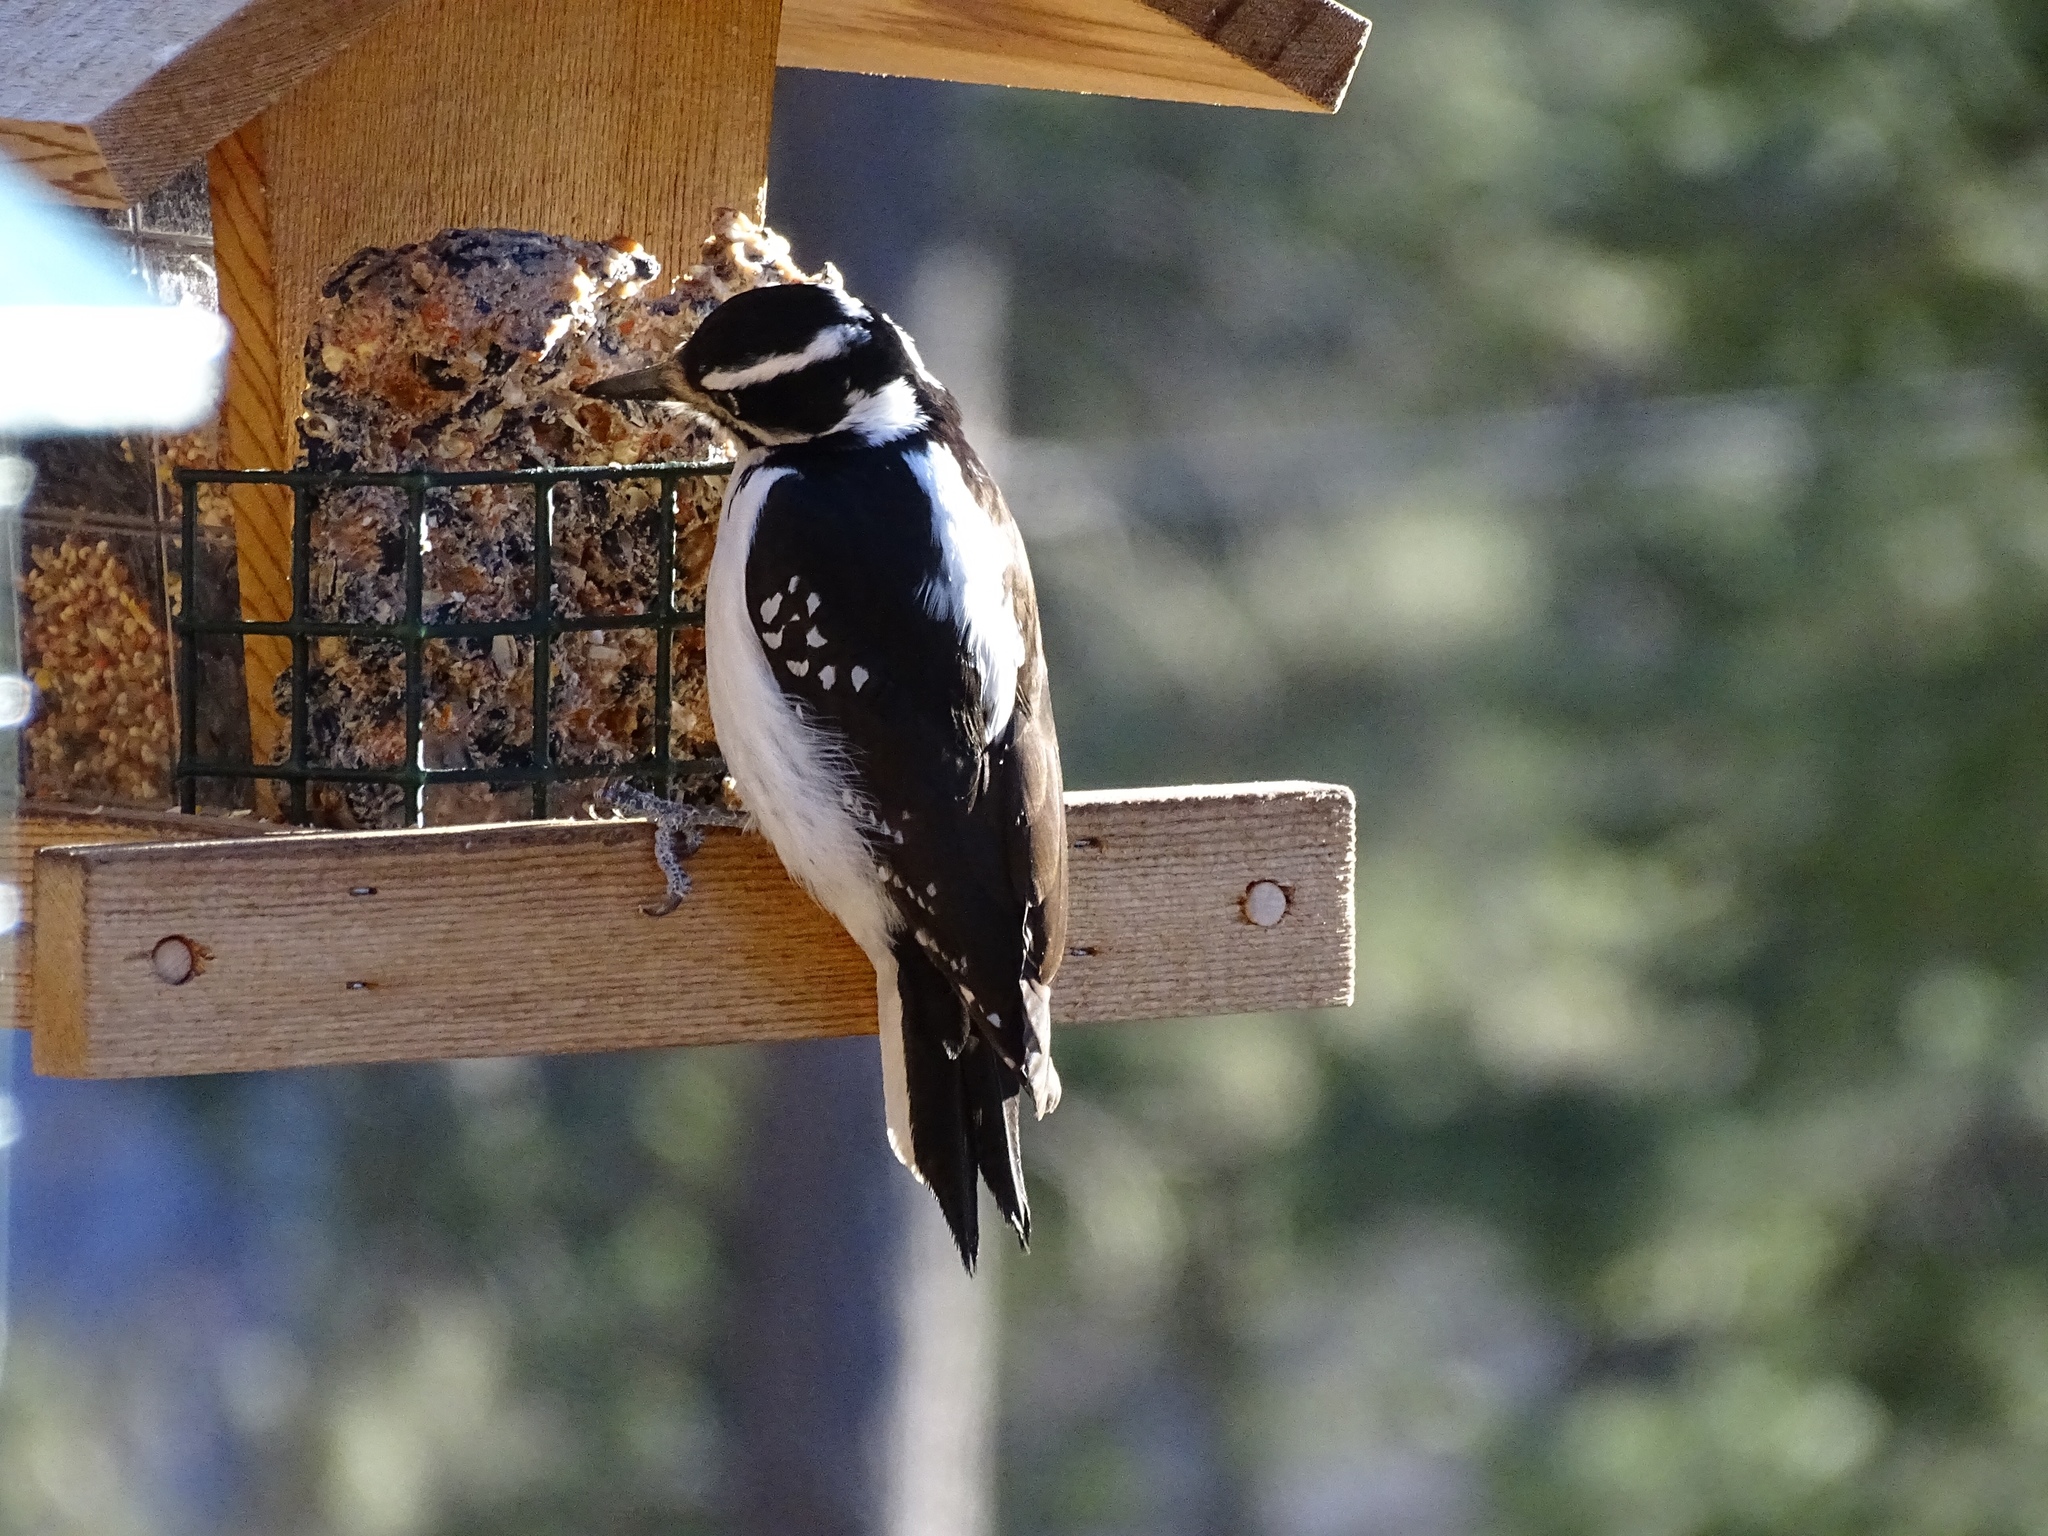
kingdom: Animalia
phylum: Chordata
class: Aves
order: Piciformes
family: Picidae
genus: Leuconotopicus
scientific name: Leuconotopicus villosus
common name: Hairy woodpecker
